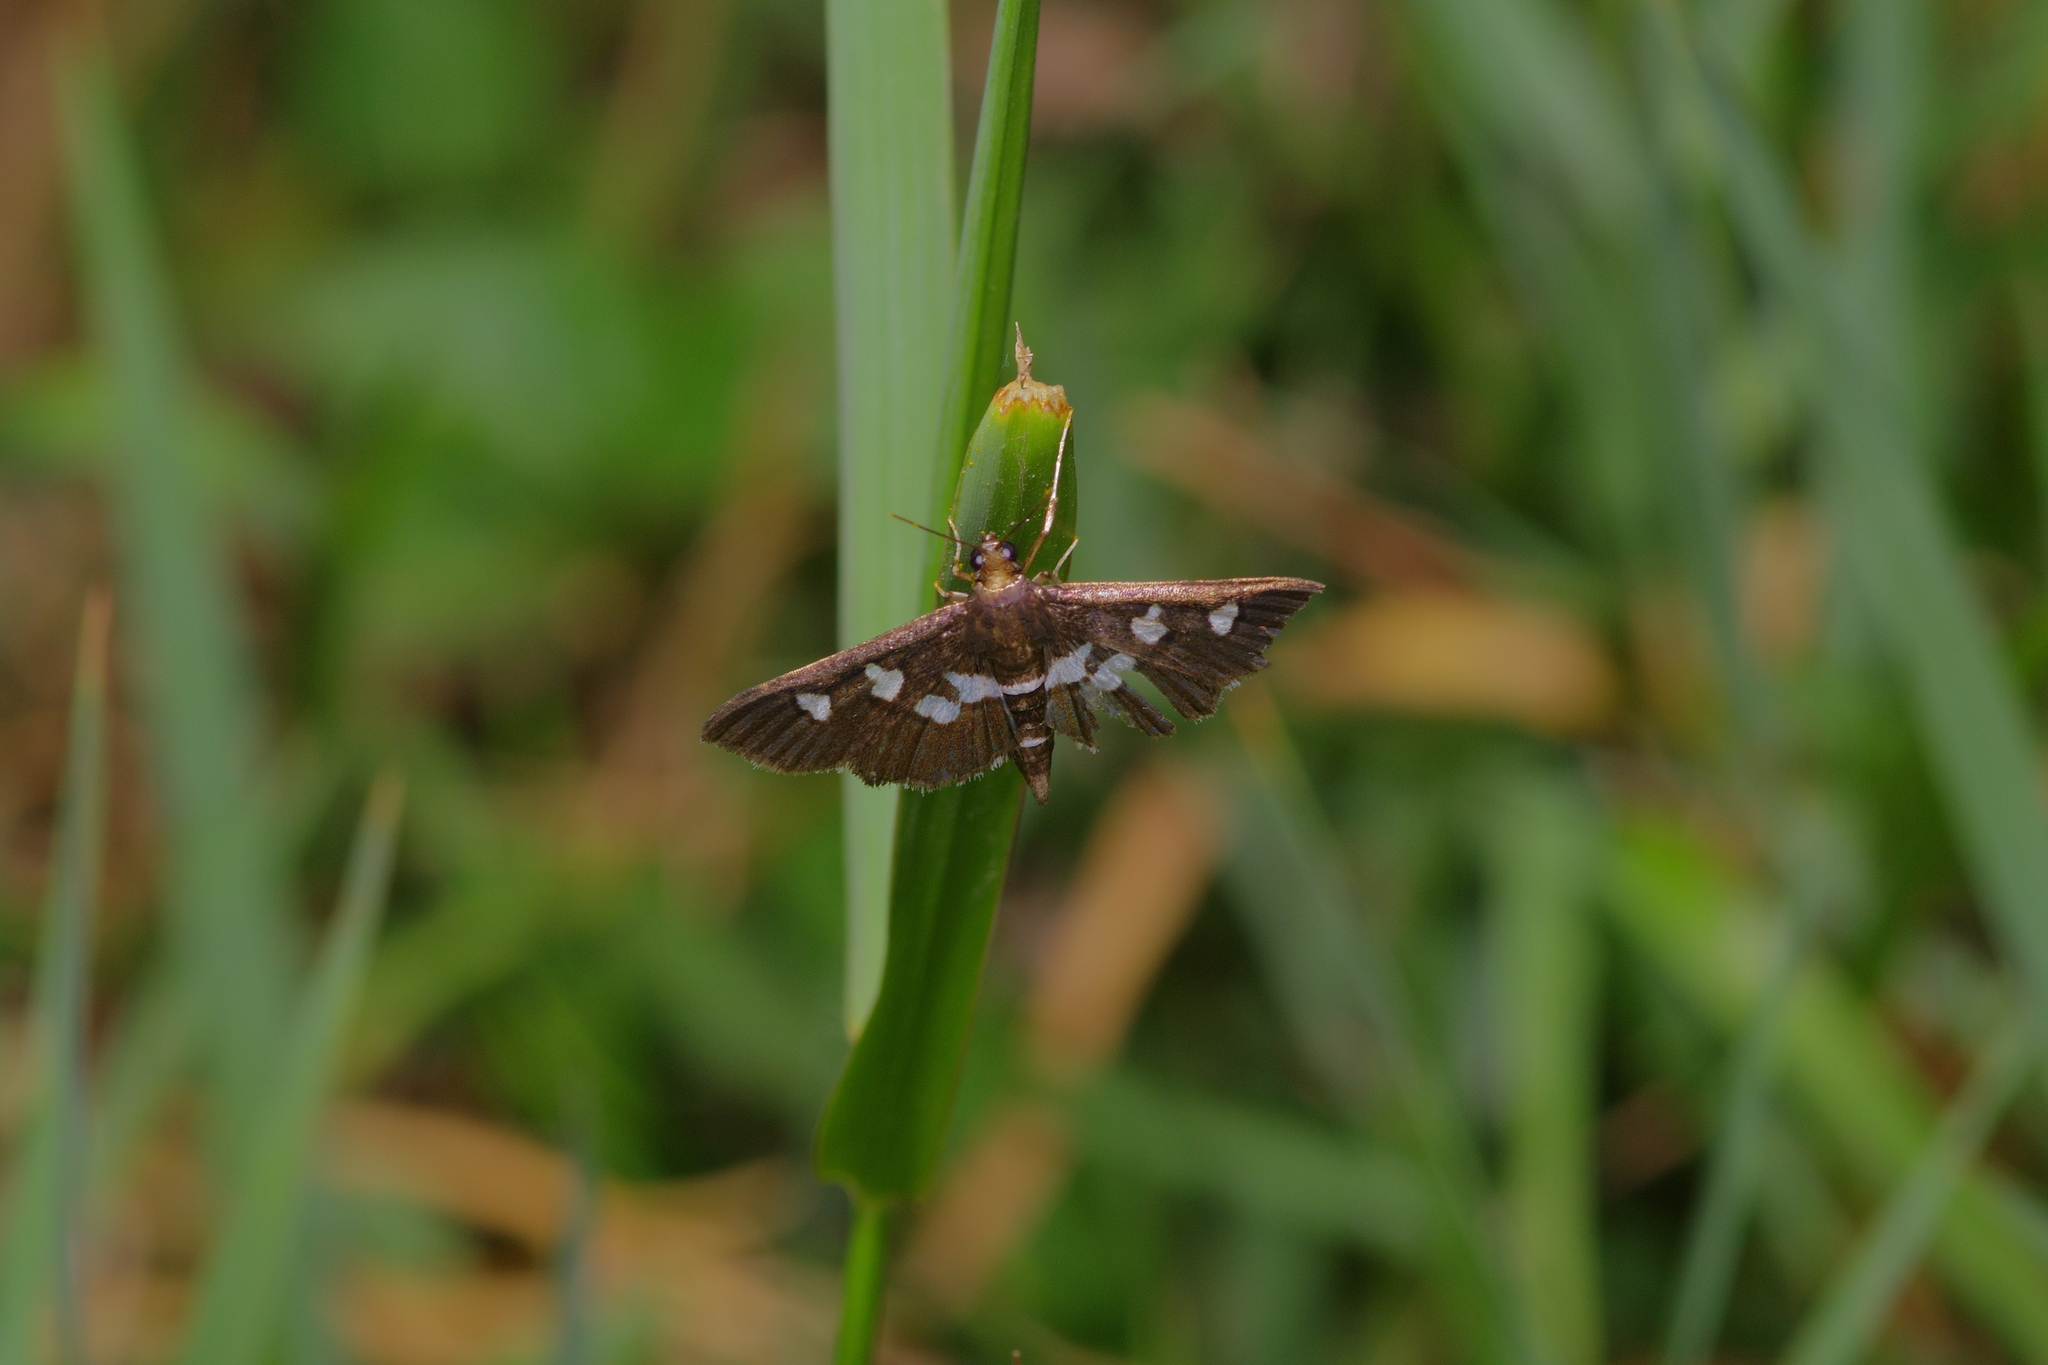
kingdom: Animalia
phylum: Arthropoda
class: Insecta
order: Lepidoptera
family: Crambidae
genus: Desmia
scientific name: Desmia
